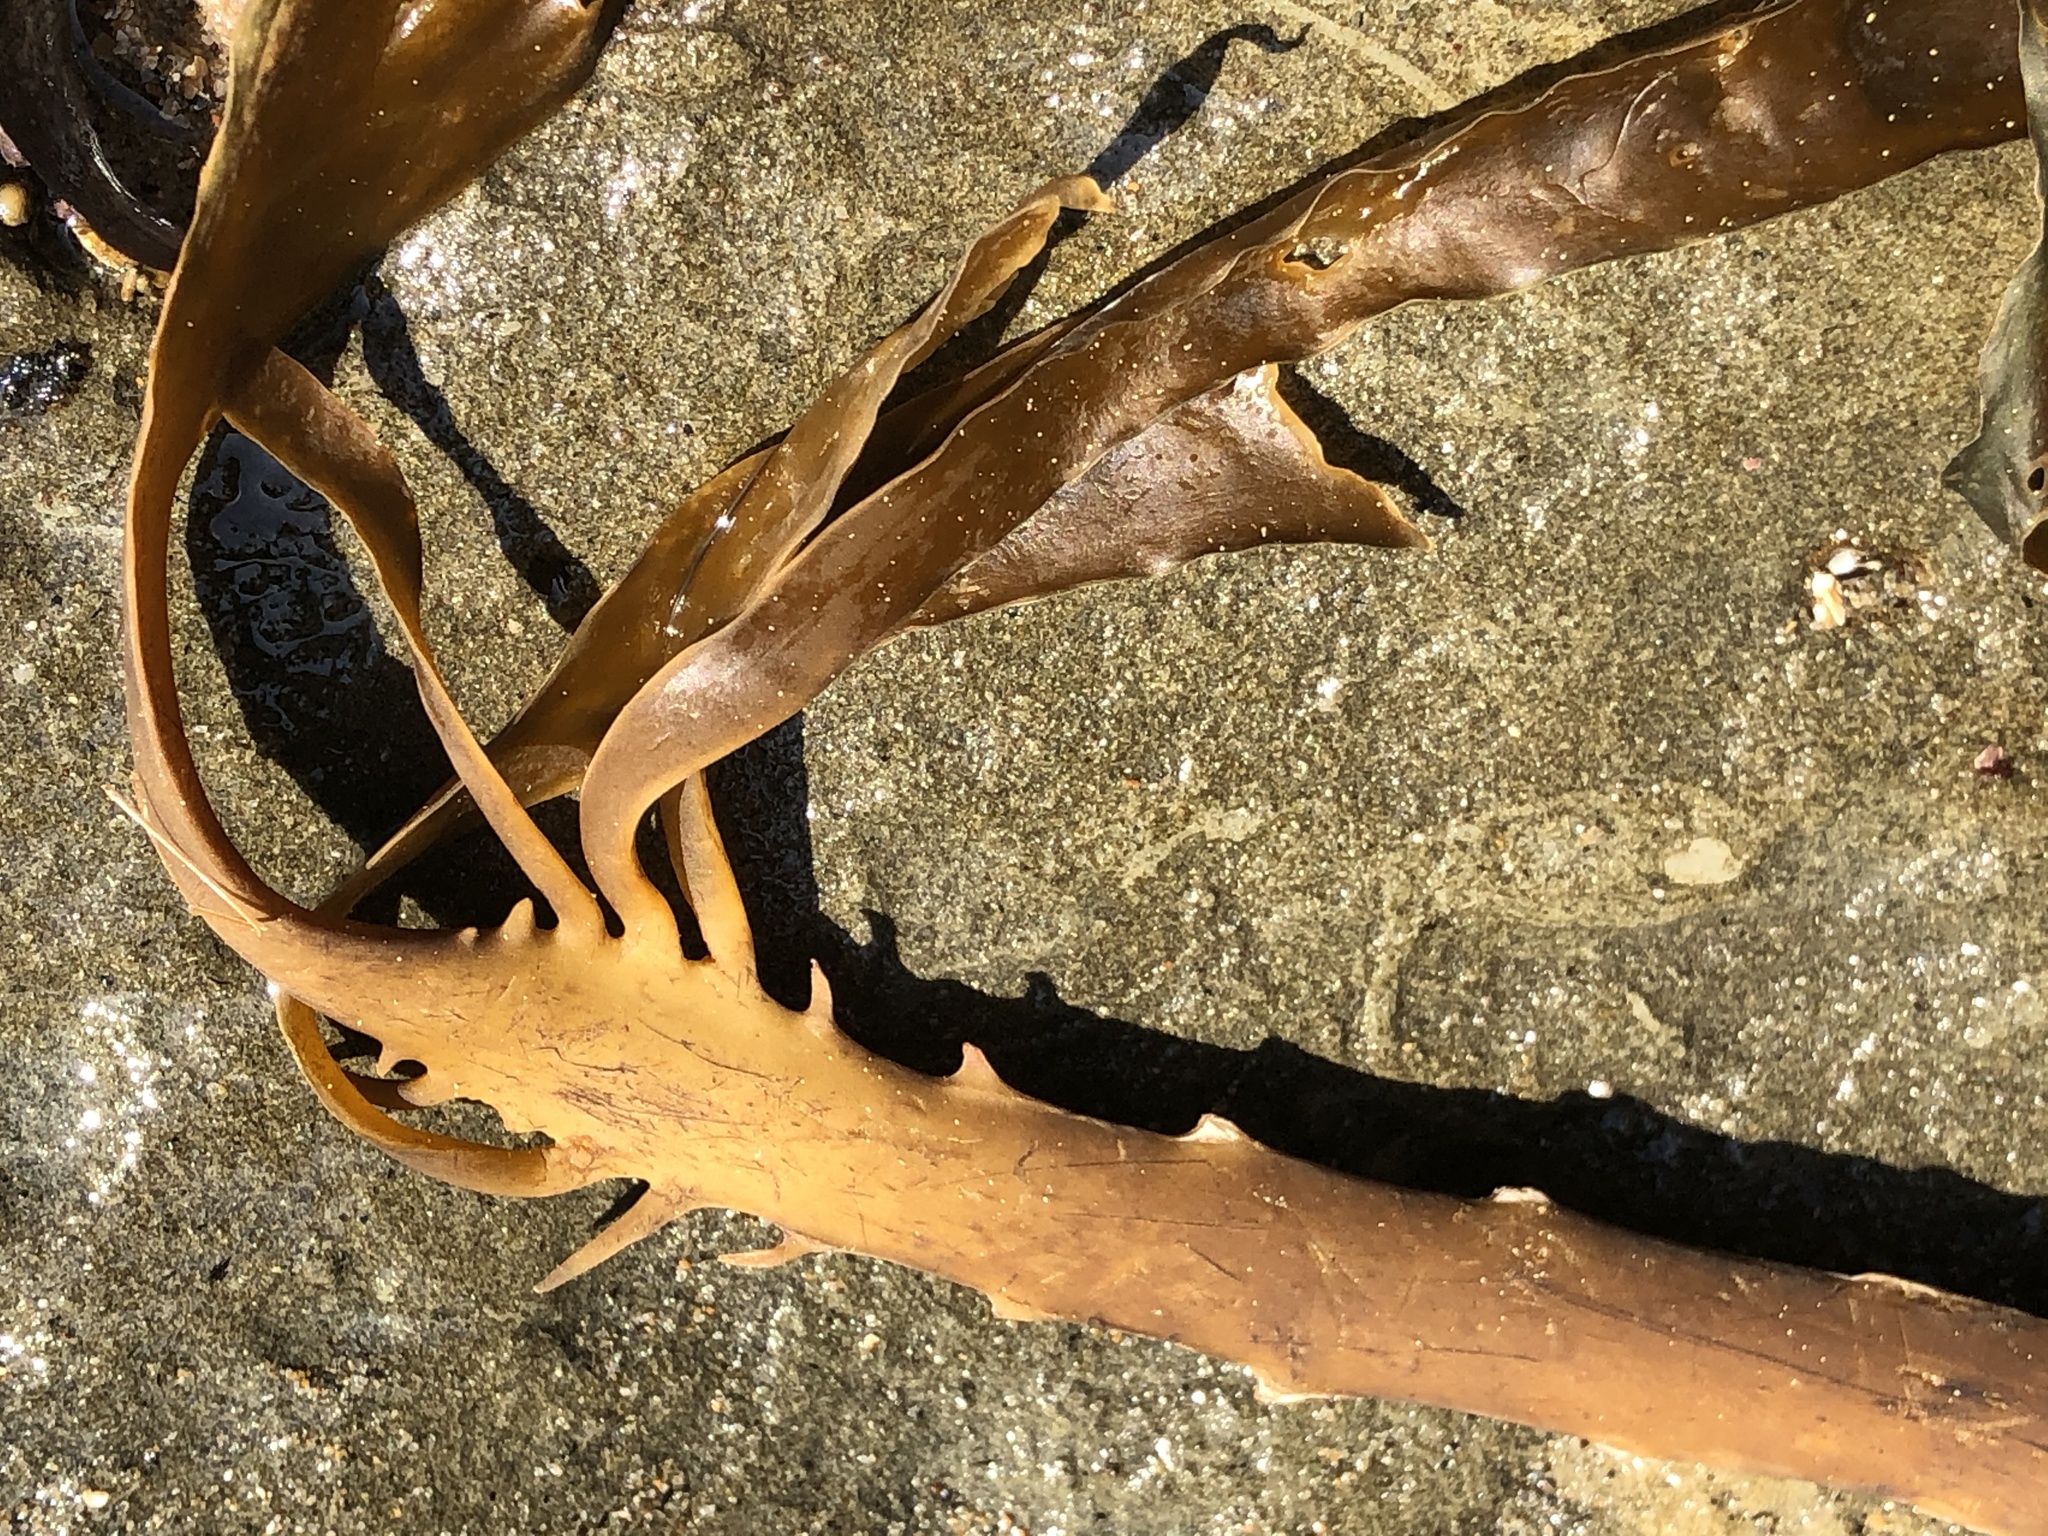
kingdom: Chromista
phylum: Ochrophyta
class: Phaeophyceae
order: Laminariales
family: Alariaceae
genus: Pterygophora
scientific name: Pterygophora californica
